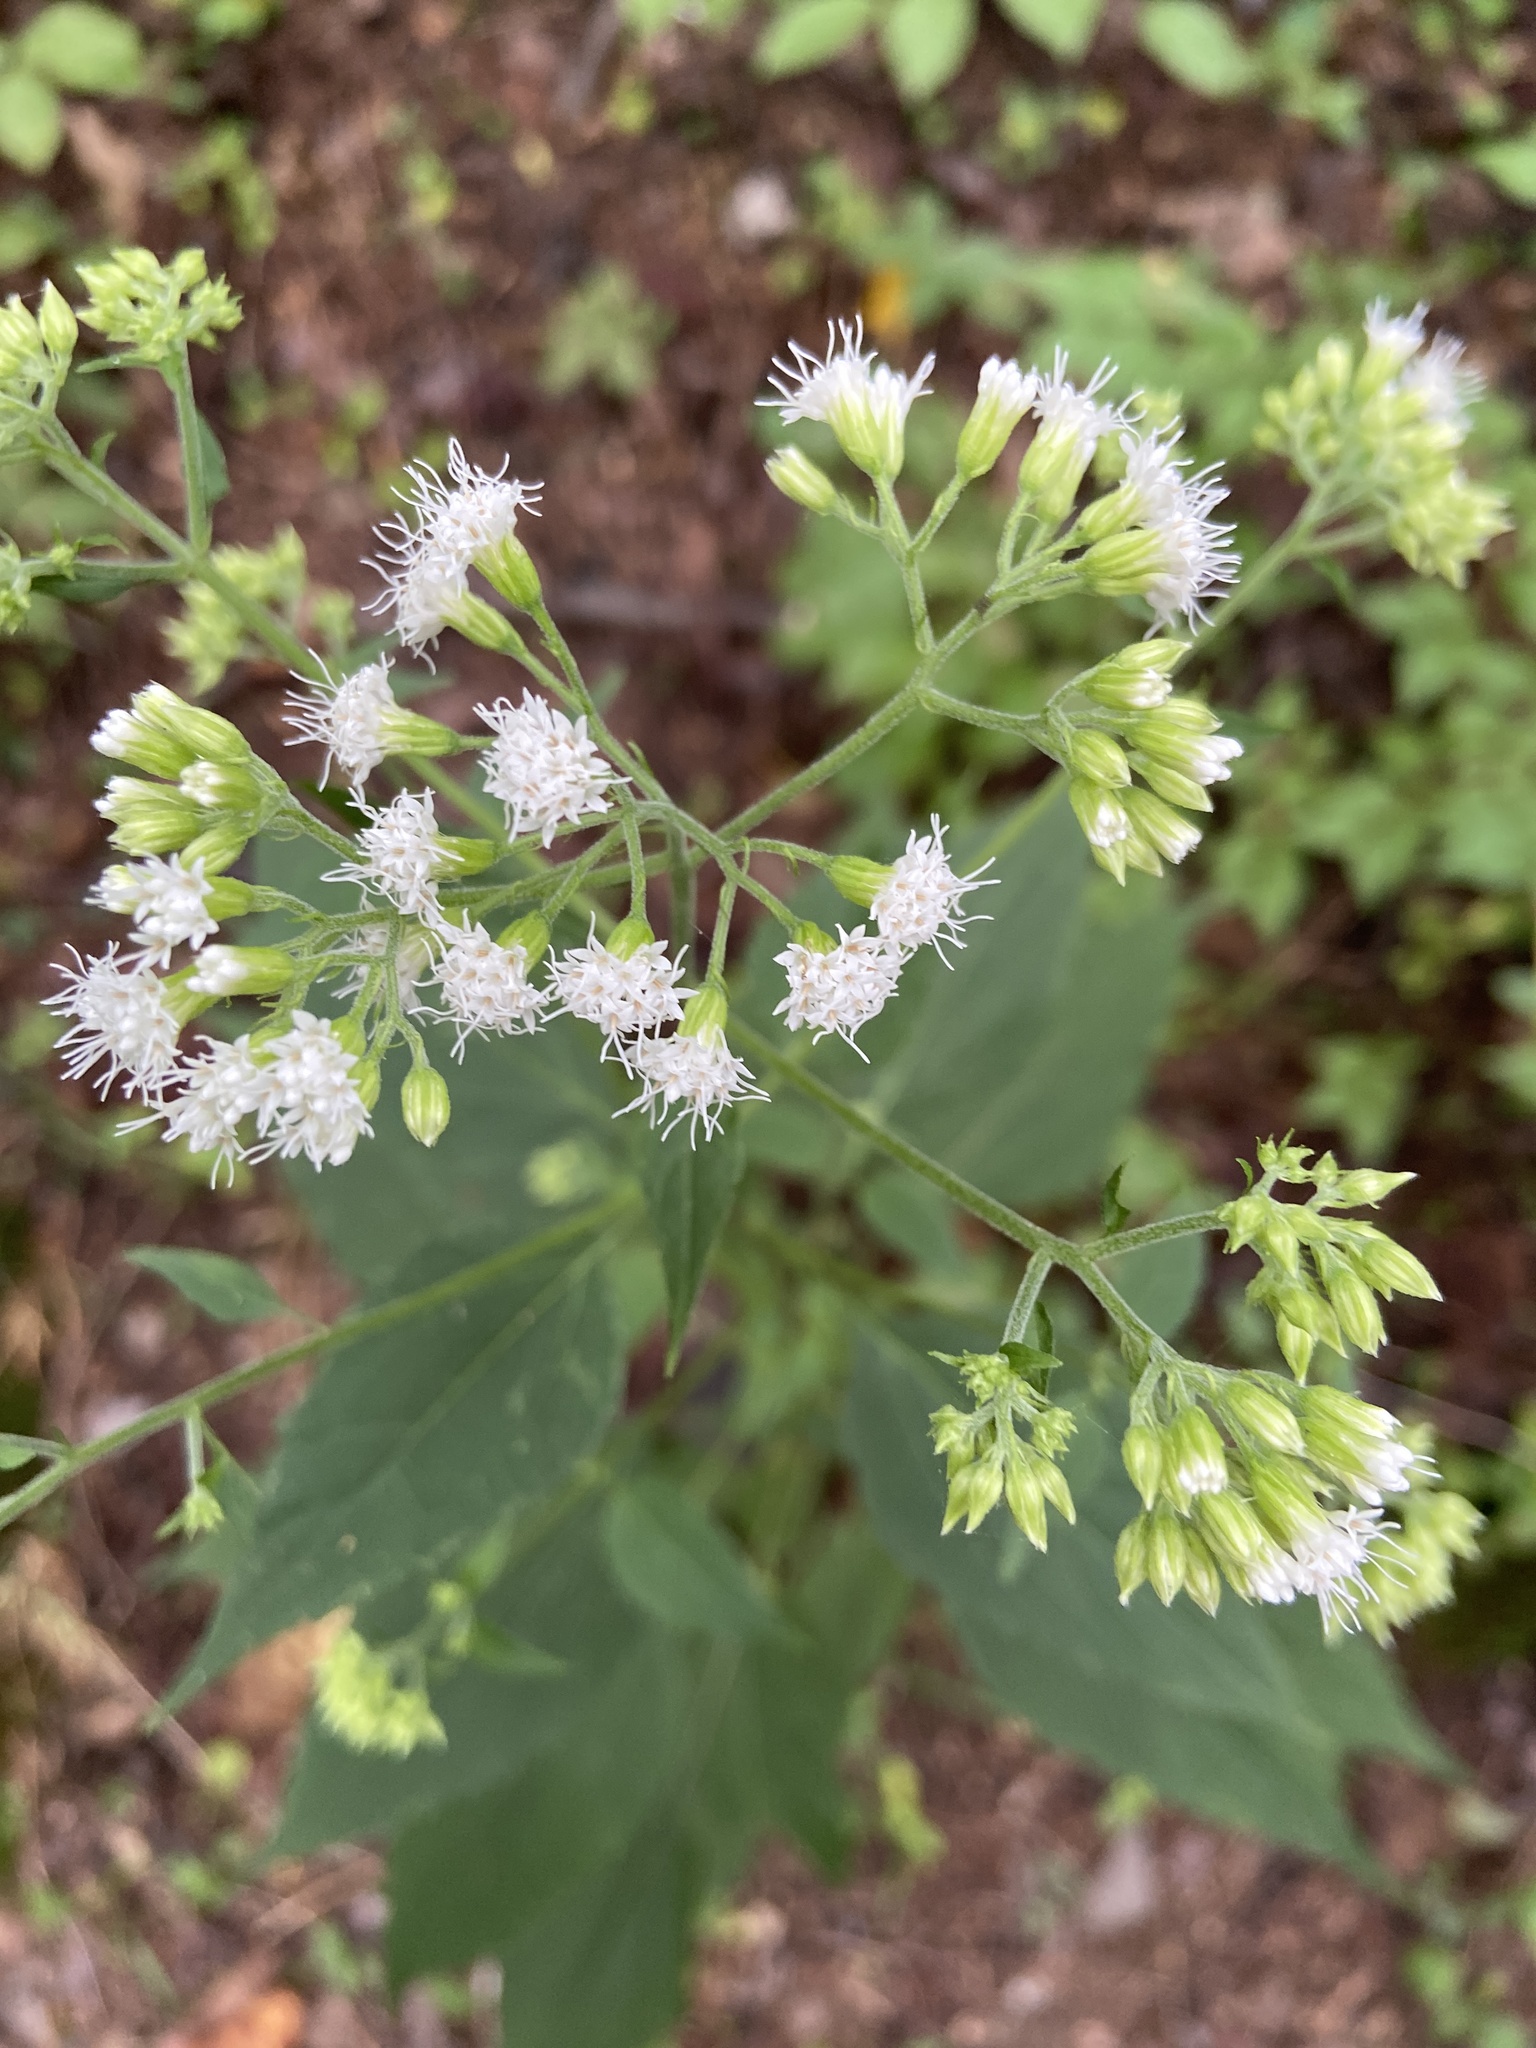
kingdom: Plantae
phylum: Tracheophyta
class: Magnoliopsida
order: Asterales
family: Asteraceae
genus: Ageratina
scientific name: Ageratina altissima
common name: White snakeroot
